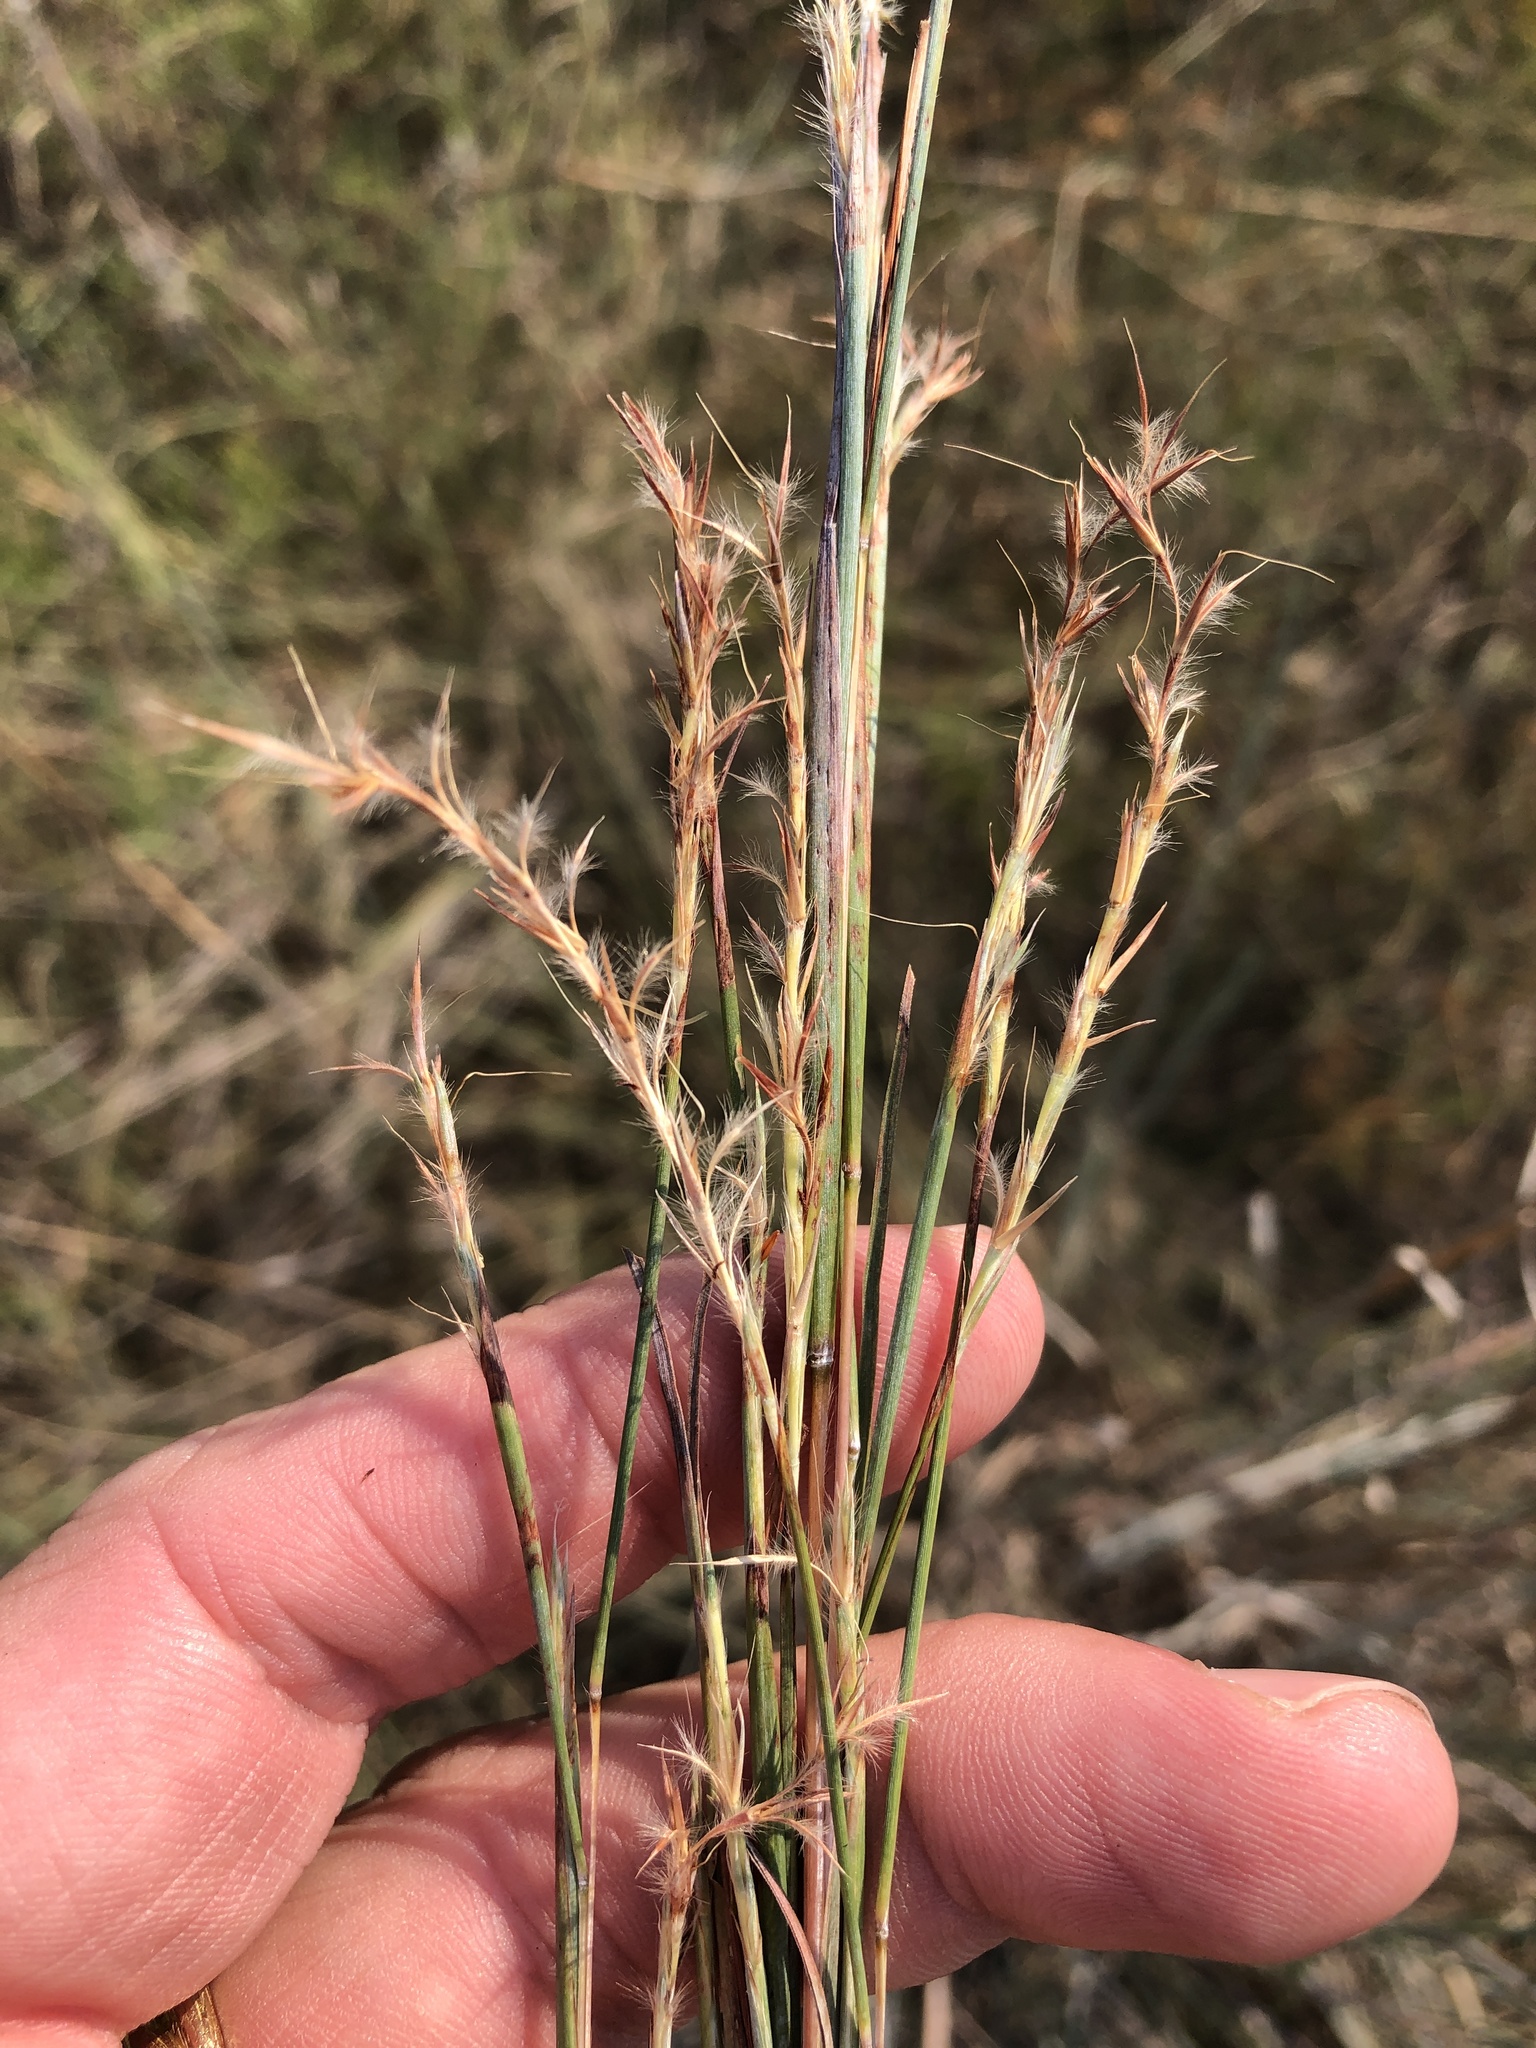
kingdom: Plantae
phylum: Tracheophyta
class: Liliopsida
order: Poales
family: Poaceae
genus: Schizachyrium
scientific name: Schizachyrium scoparium
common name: Little bluestem
